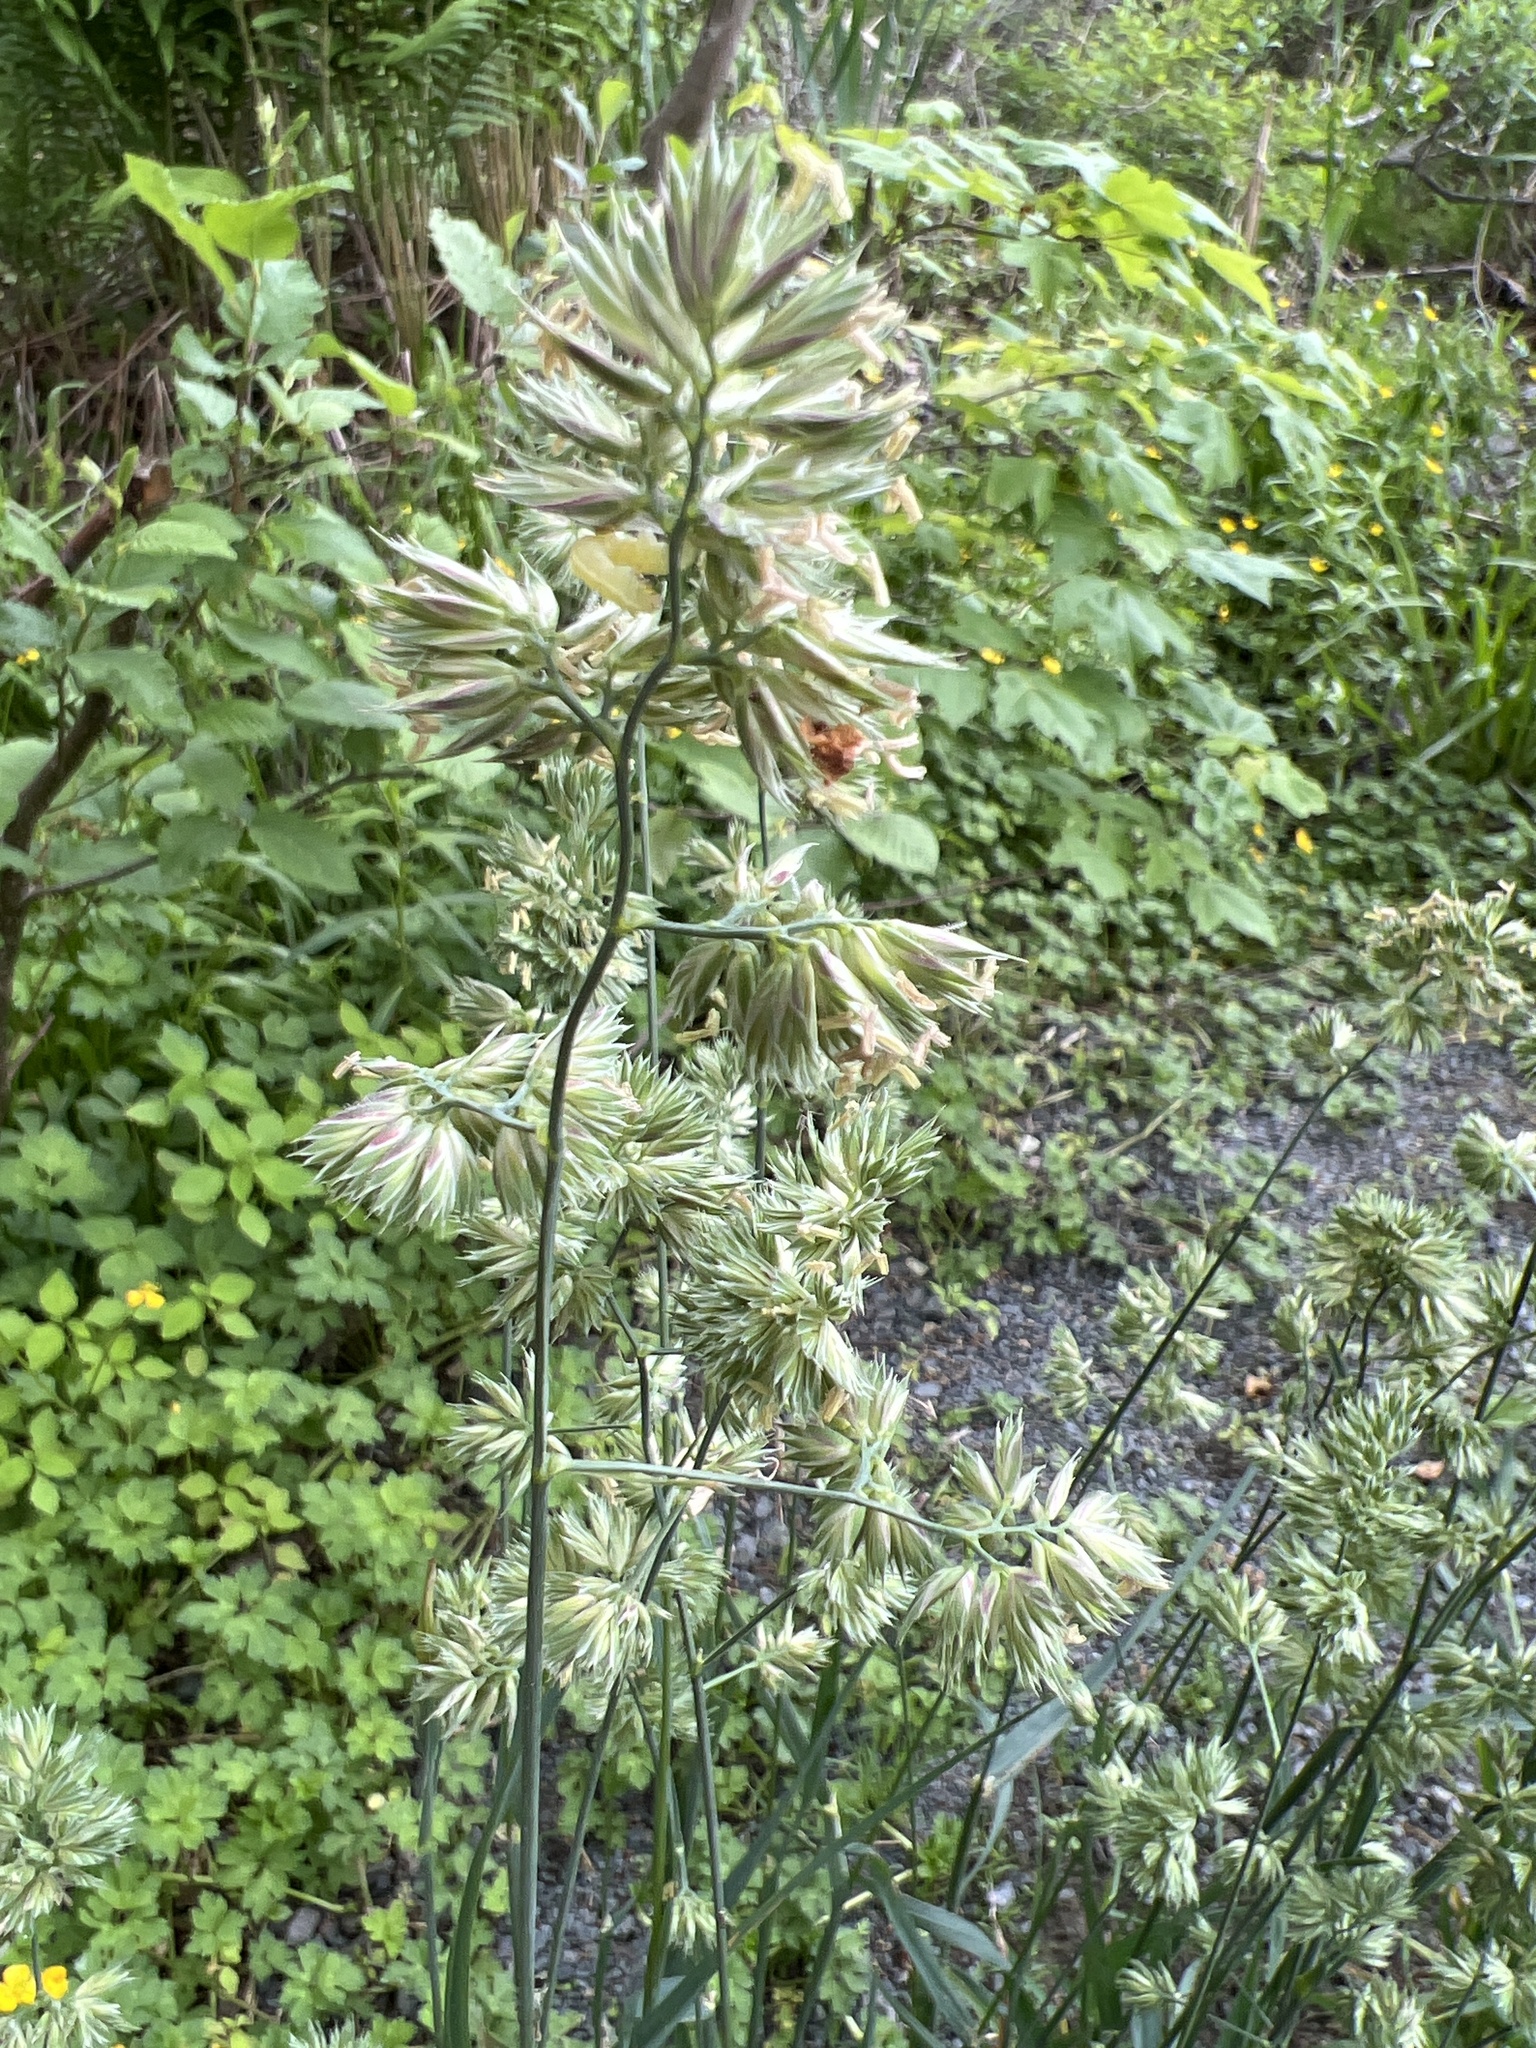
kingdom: Plantae
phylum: Tracheophyta
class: Liliopsida
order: Poales
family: Poaceae
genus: Dactylis
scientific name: Dactylis glomerata
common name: Orchardgrass
